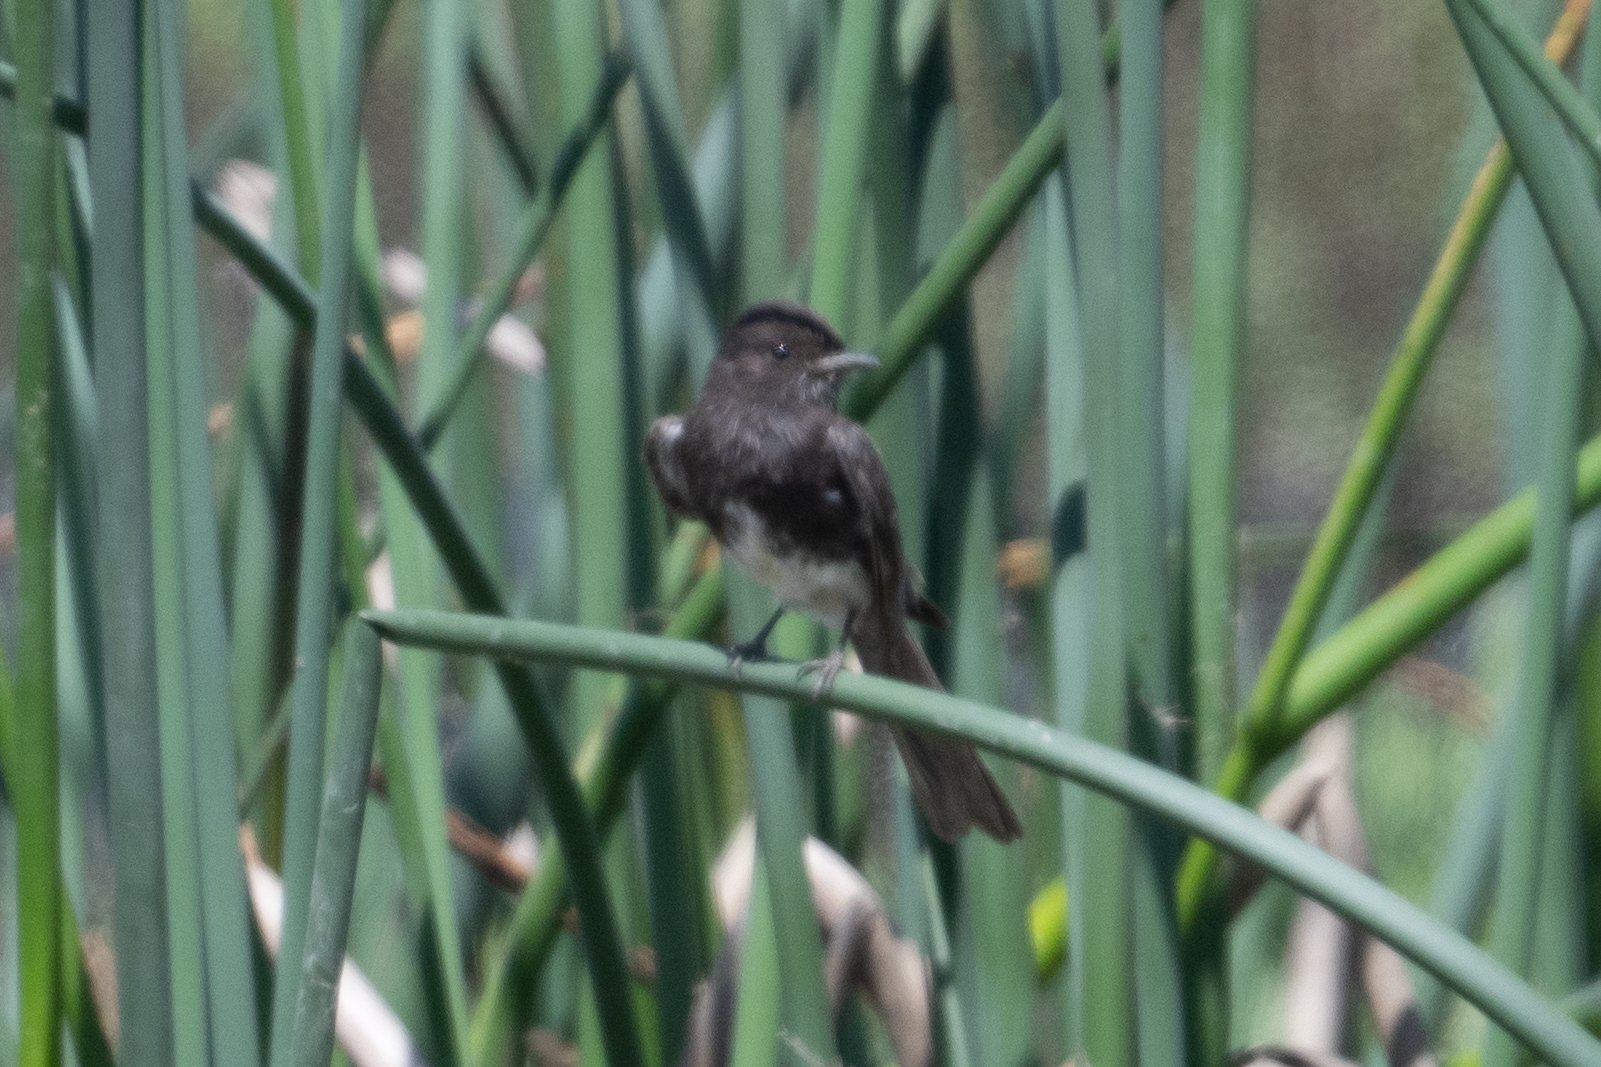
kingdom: Animalia
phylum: Chordata
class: Aves
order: Passeriformes
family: Tyrannidae
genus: Sayornis
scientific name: Sayornis nigricans
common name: Black phoebe
